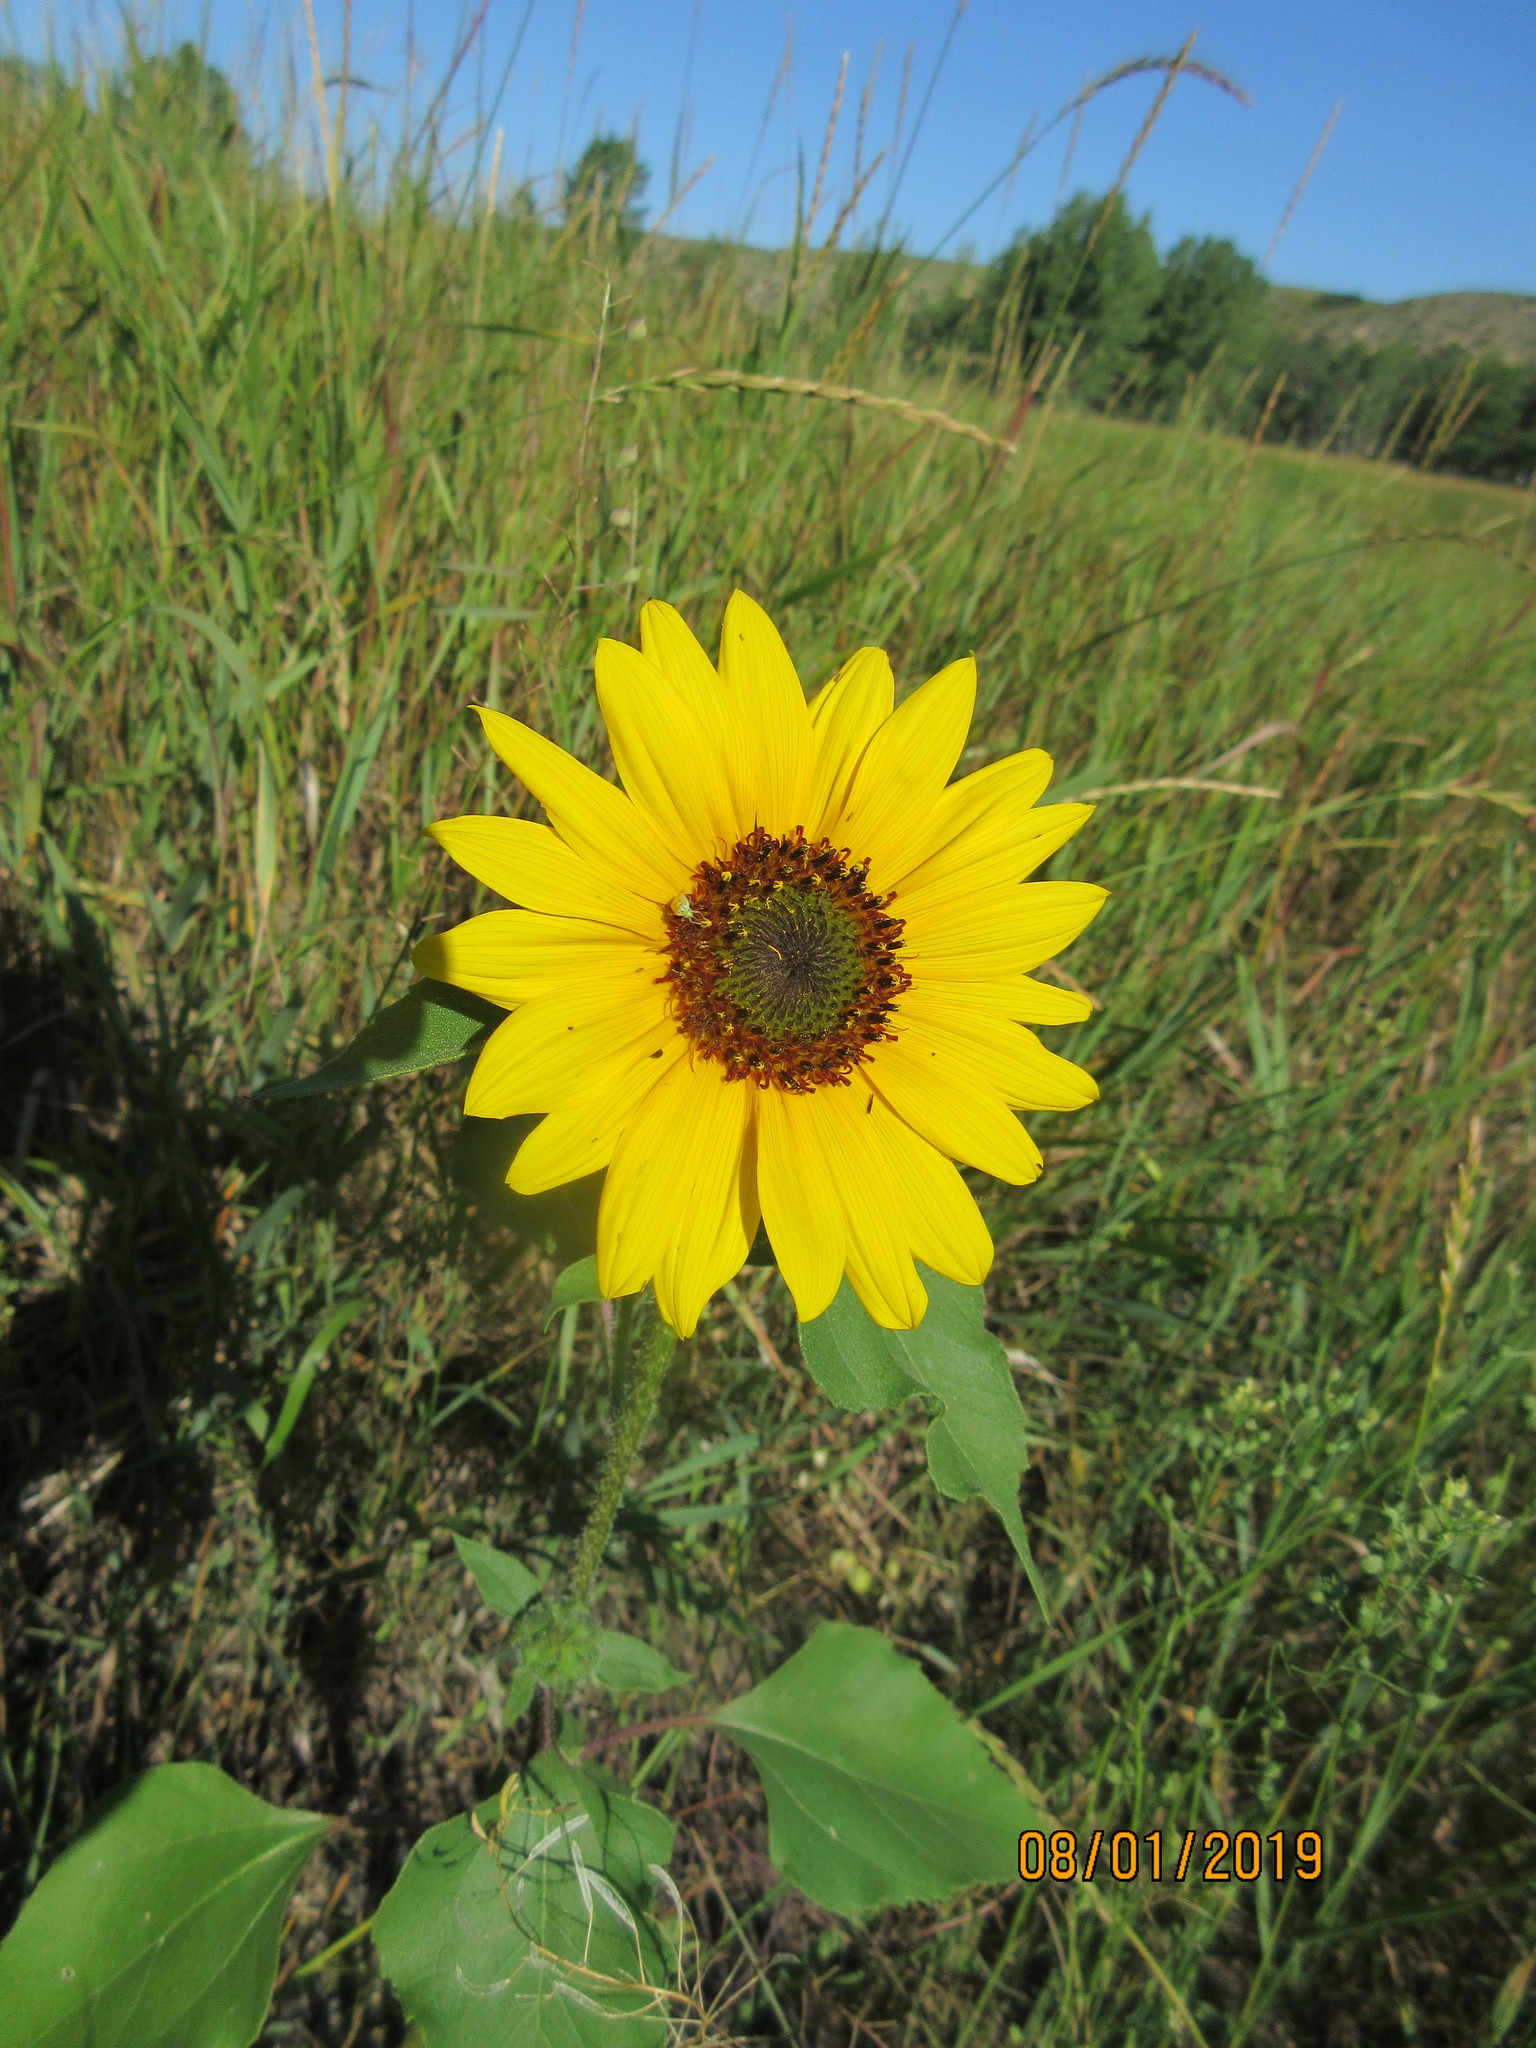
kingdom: Plantae
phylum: Tracheophyta
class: Magnoliopsida
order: Asterales
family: Asteraceae
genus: Helianthus
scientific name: Helianthus annuus
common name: Sunflower
